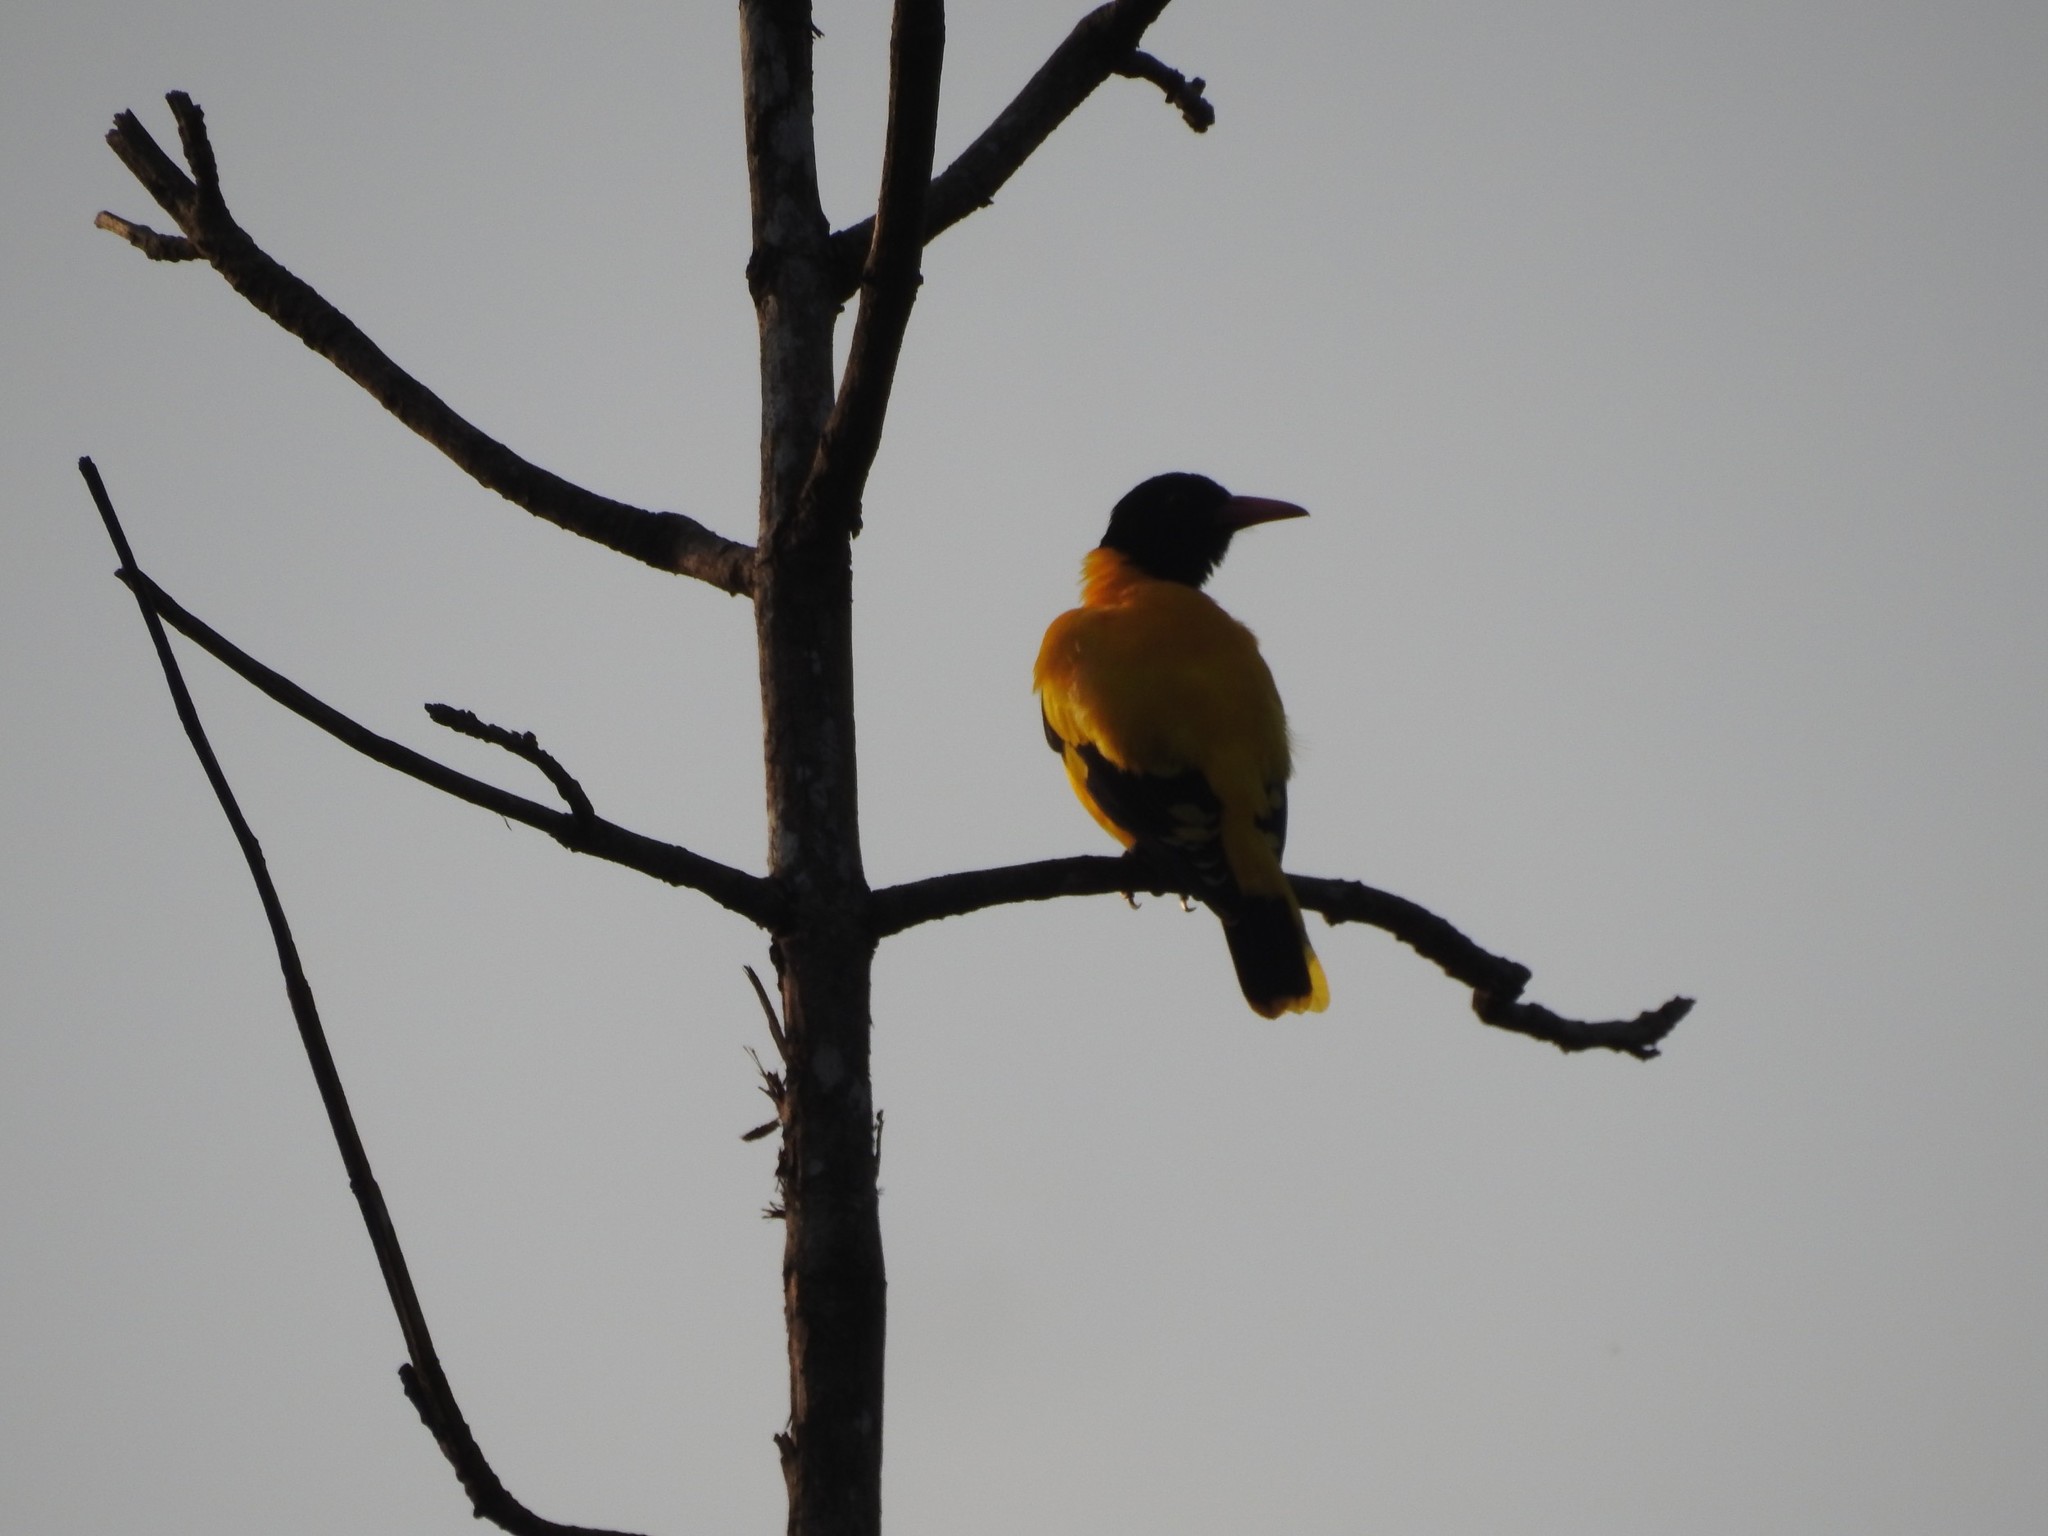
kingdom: Animalia
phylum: Chordata
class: Aves
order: Passeriformes
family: Oriolidae
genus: Oriolus
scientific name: Oriolus xanthornus
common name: Black-hooded oriole
